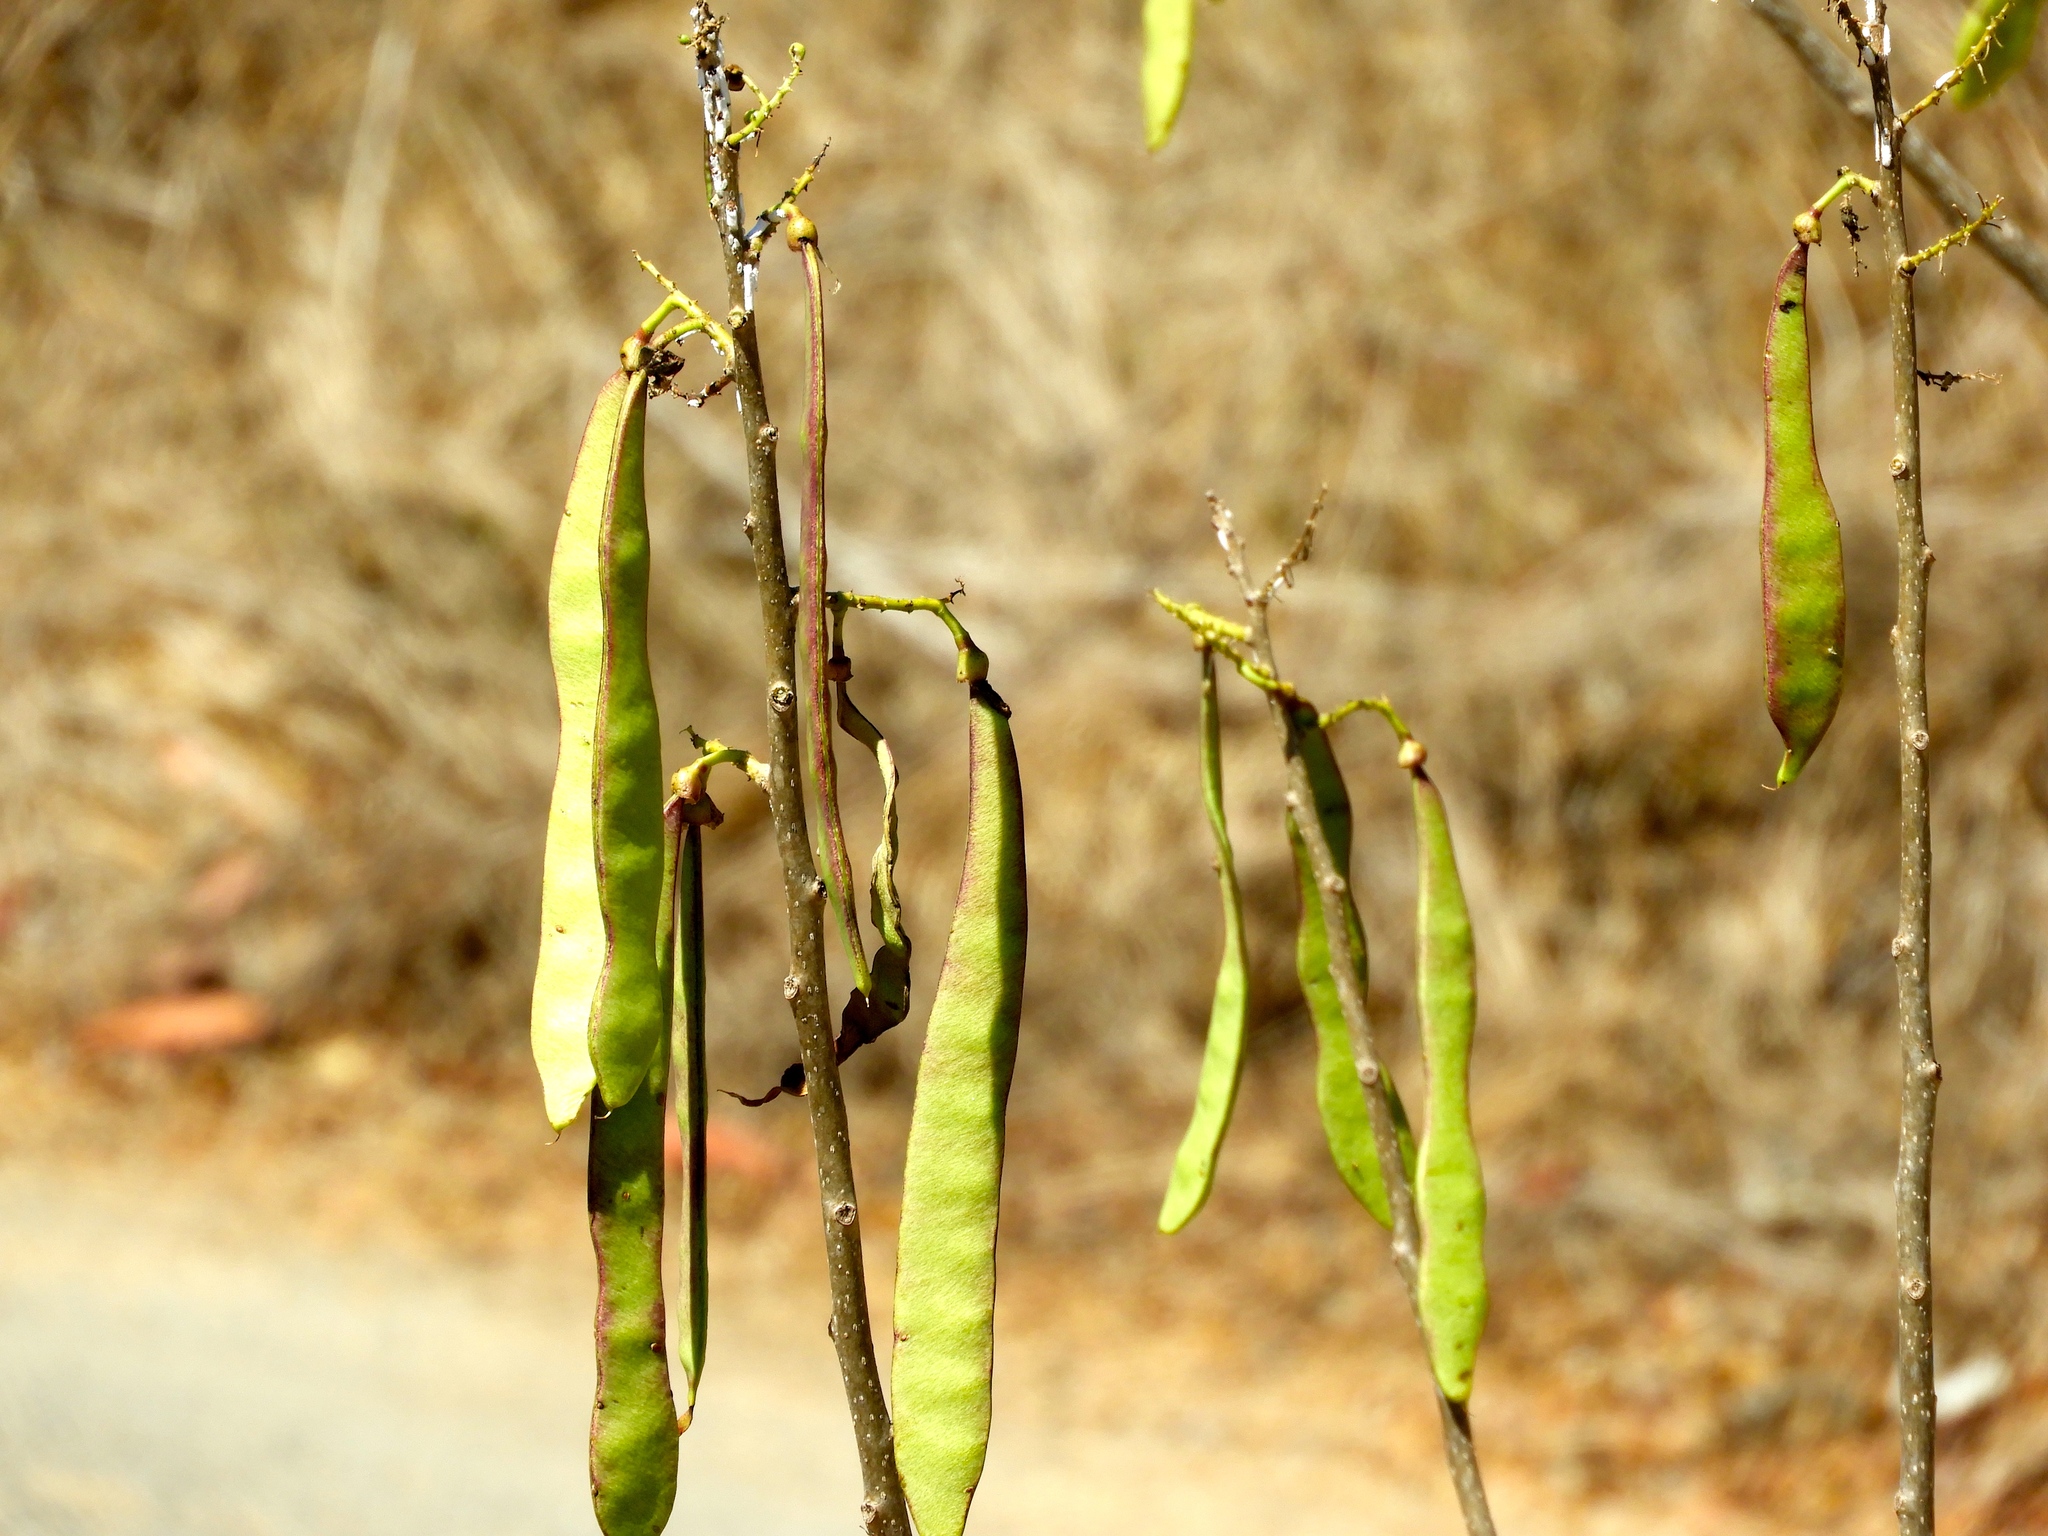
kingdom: Plantae
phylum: Tracheophyta
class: Magnoliopsida
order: Fabales
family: Fabaceae
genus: Gliricidia
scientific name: Gliricidia sepium
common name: Quickstick
